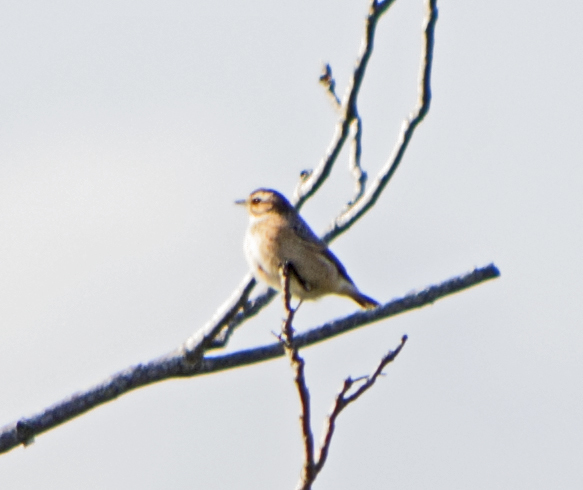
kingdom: Animalia
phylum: Chordata
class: Aves
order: Passeriformes
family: Muscicapidae
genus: Saxicola
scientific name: Saxicola rubetra
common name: Whinchat
